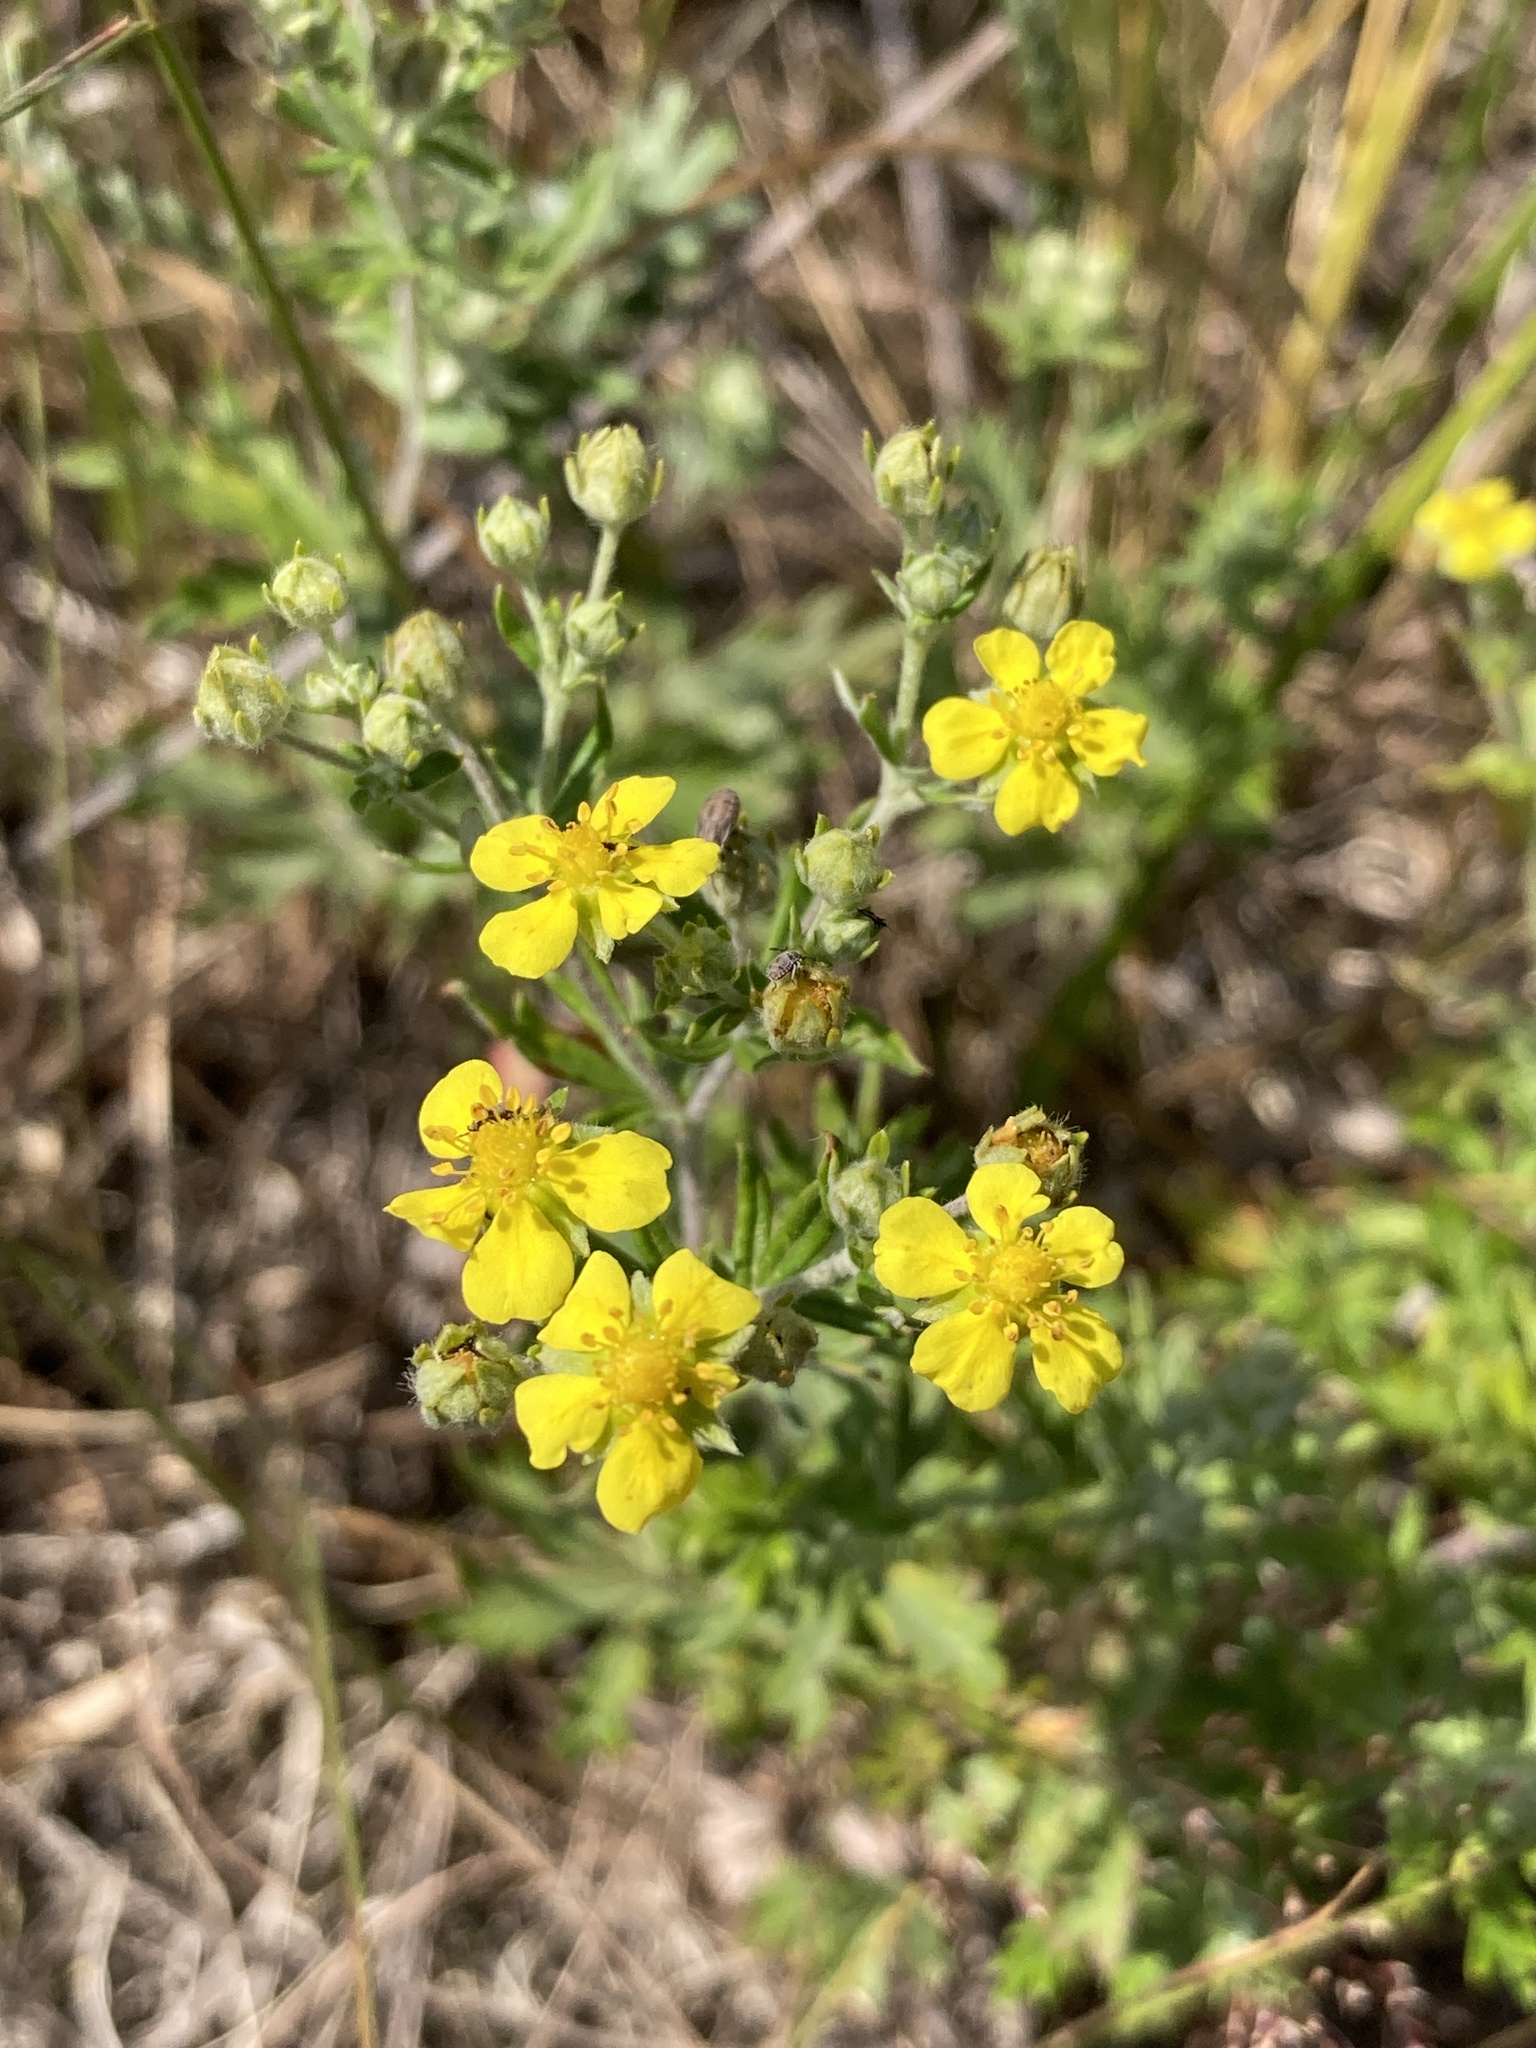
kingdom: Plantae
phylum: Tracheophyta
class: Magnoliopsida
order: Rosales
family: Rosaceae
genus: Potentilla
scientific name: Potentilla argentea
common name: Hoary cinquefoil
